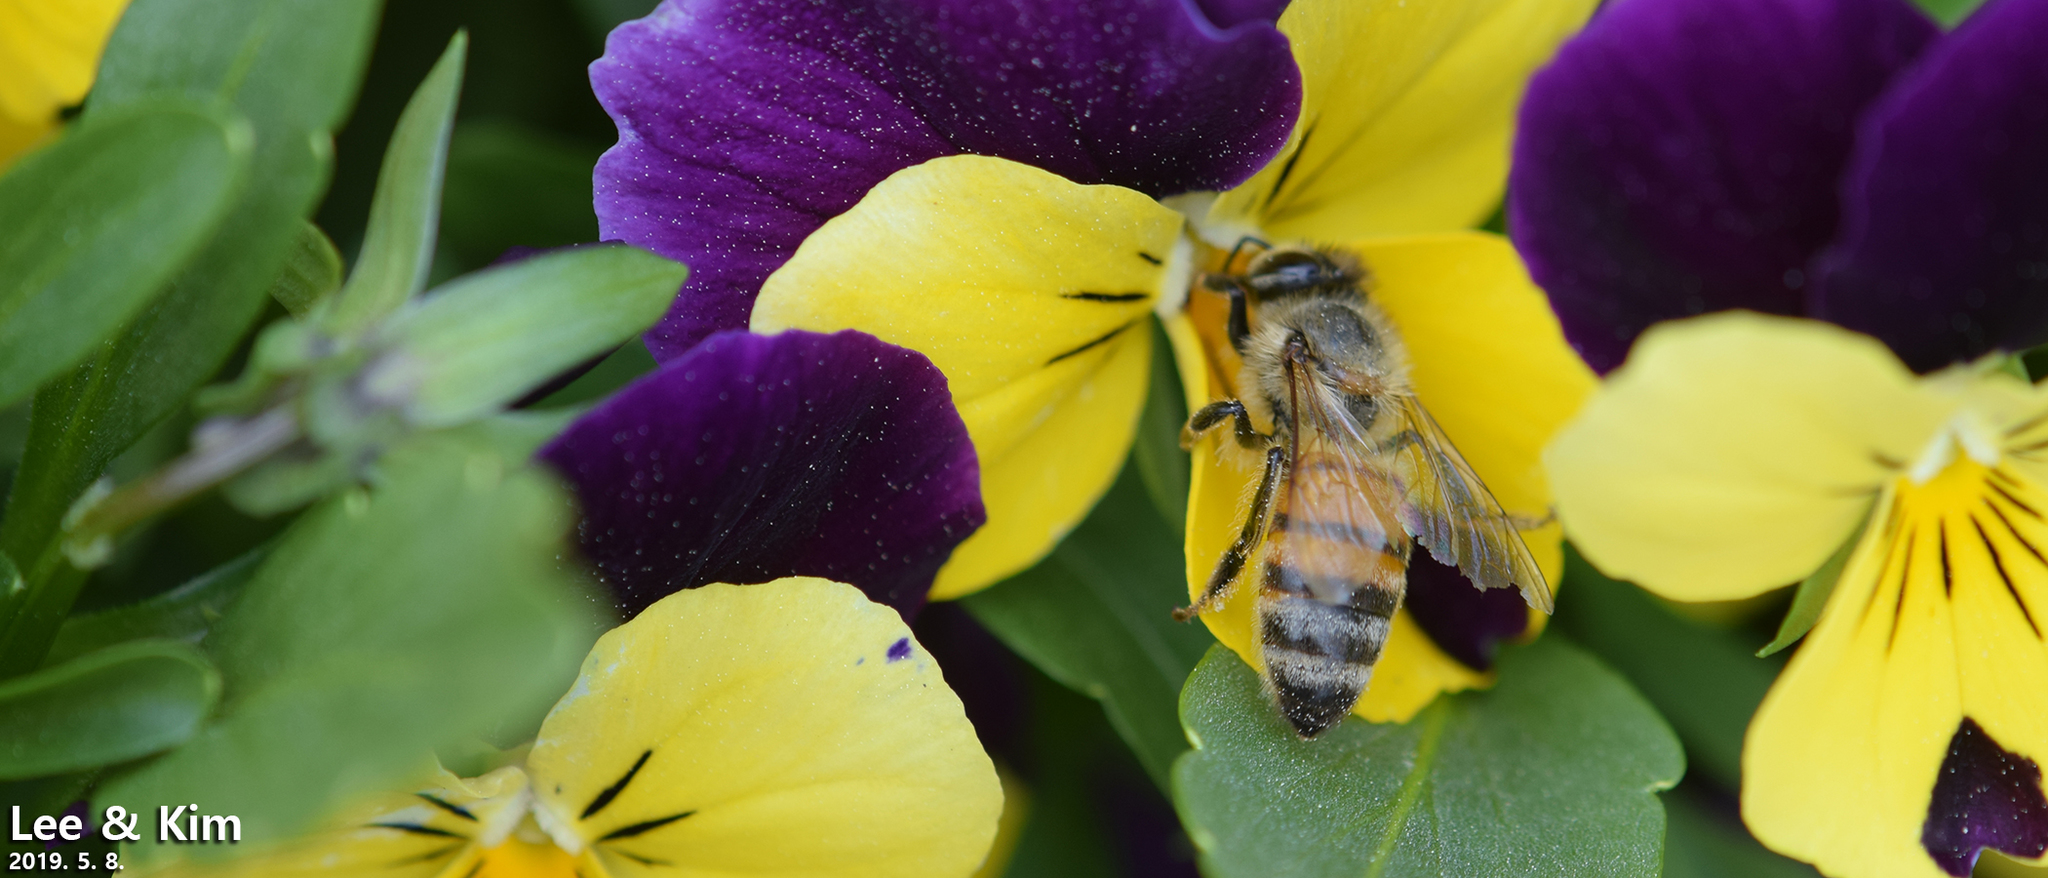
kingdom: Animalia
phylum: Arthropoda
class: Insecta
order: Hymenoptera
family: Apidae
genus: Apis
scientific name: Apis mellifera
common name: Honey bee
